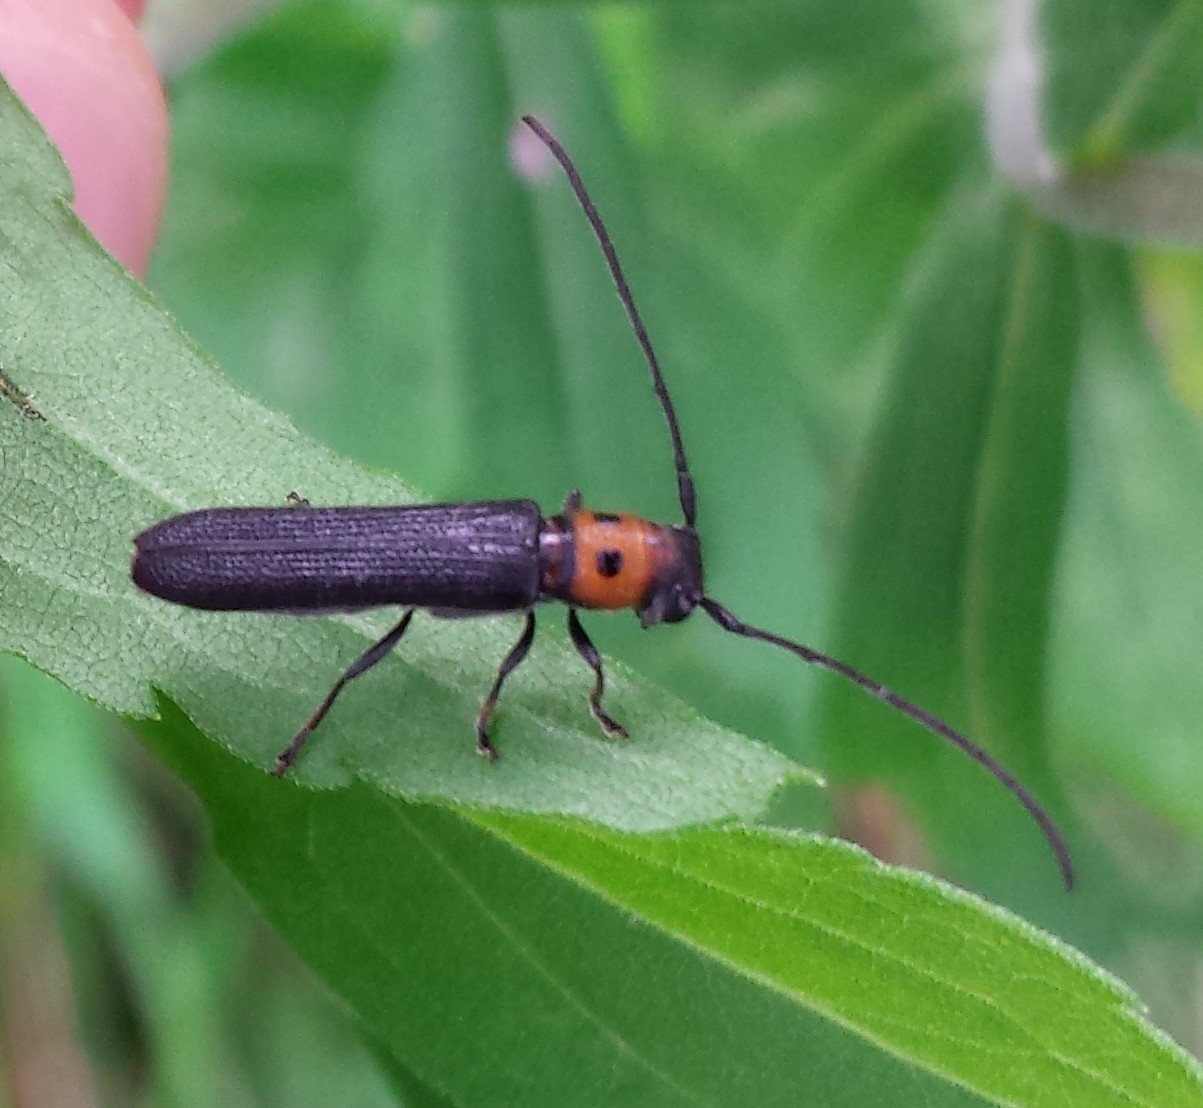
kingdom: Animalia
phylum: Arthropoda
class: Insecta
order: Coleoptera
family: Cerambycidae
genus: Oberea
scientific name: Oberea perspicillata
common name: Raspberry cane borer
